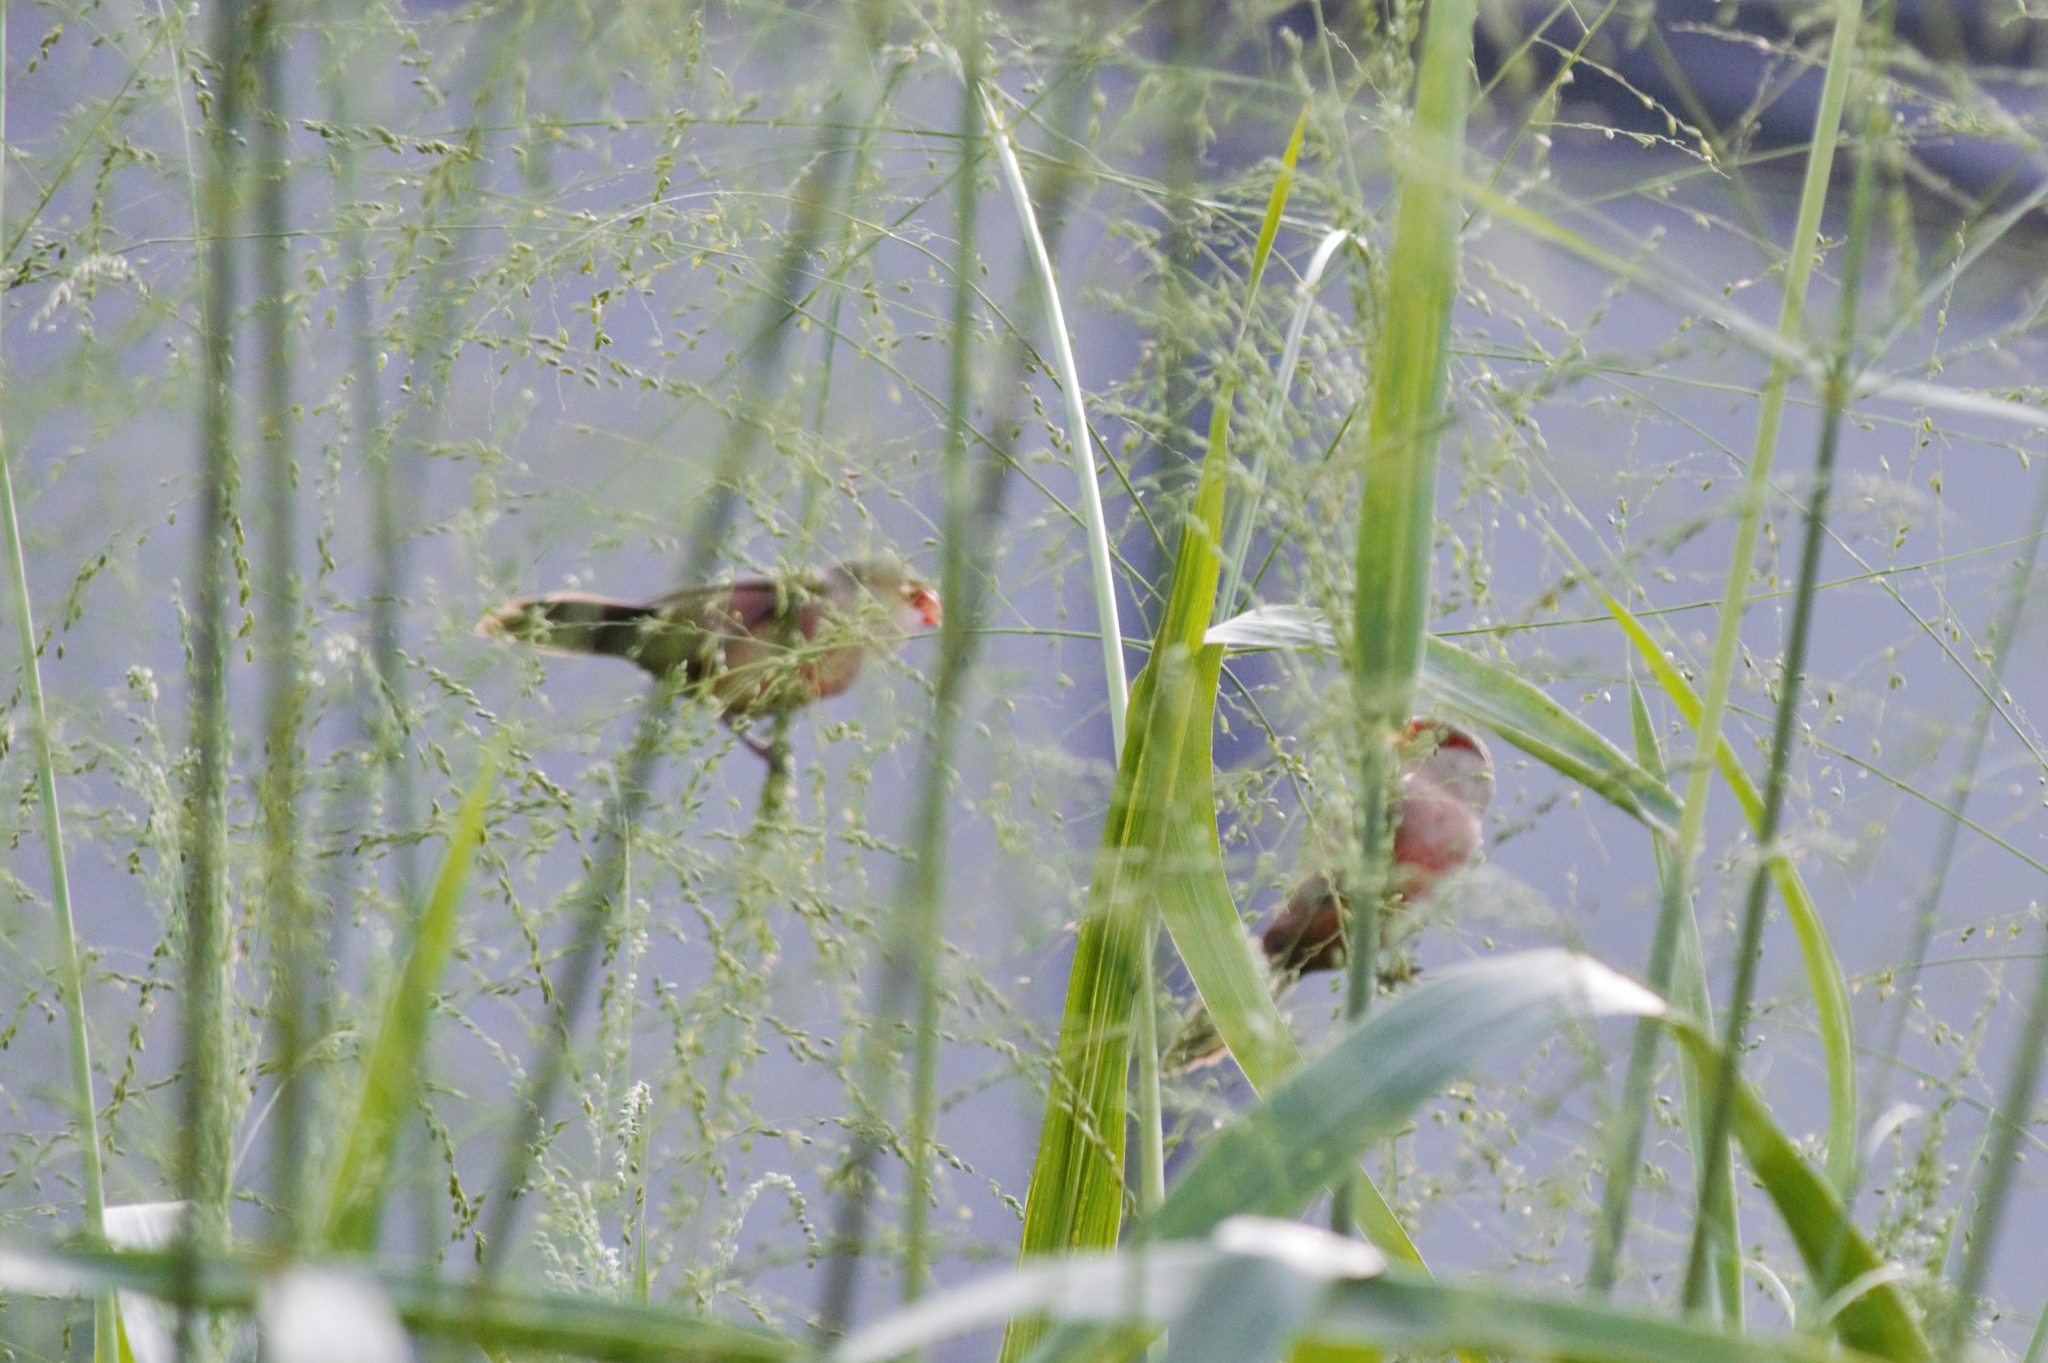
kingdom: Animalia
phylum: Chordata
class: Aves
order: Passeriformes
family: Estrildidae
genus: Estrilda
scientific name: Estrilda astrild
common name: Common waxbill
